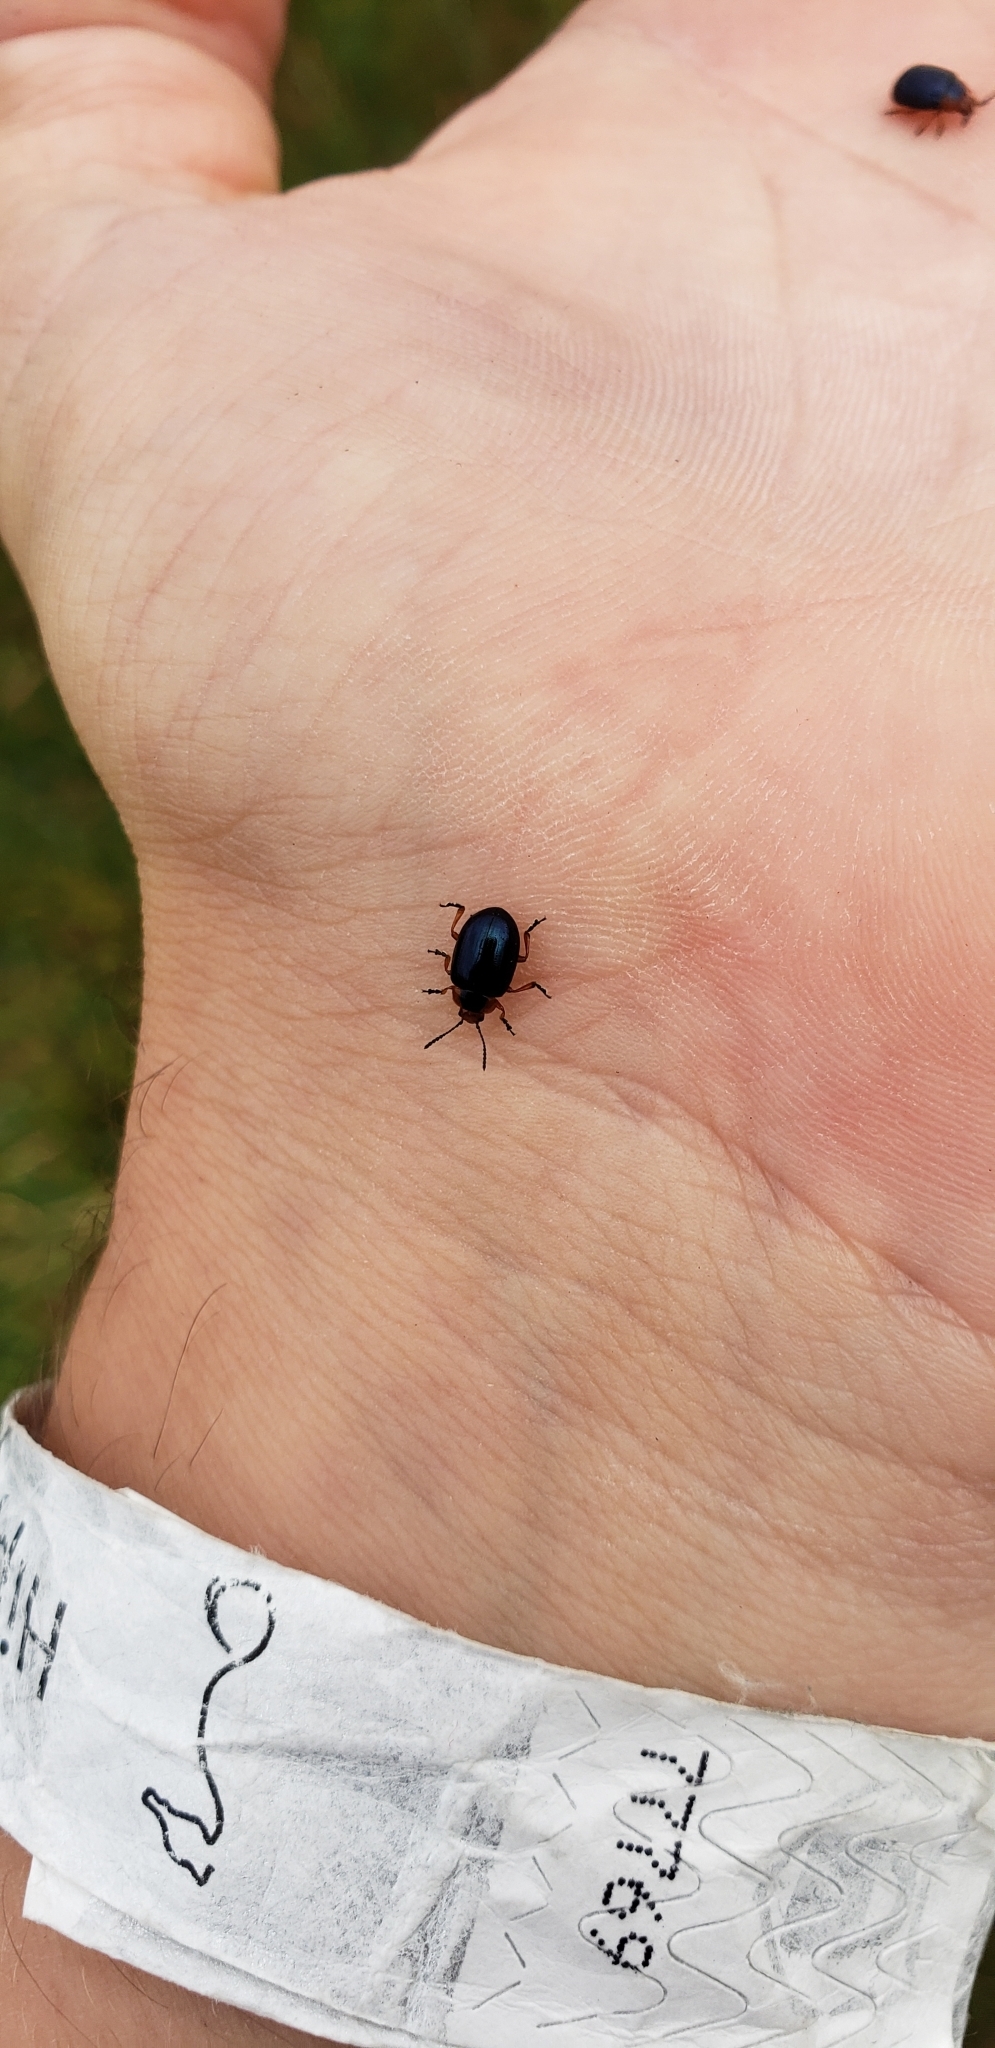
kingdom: Animalia
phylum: Arthropoda
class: Insecta
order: Coleoptera
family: Chrysomelidae
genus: Phaedon
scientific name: Phaedon
